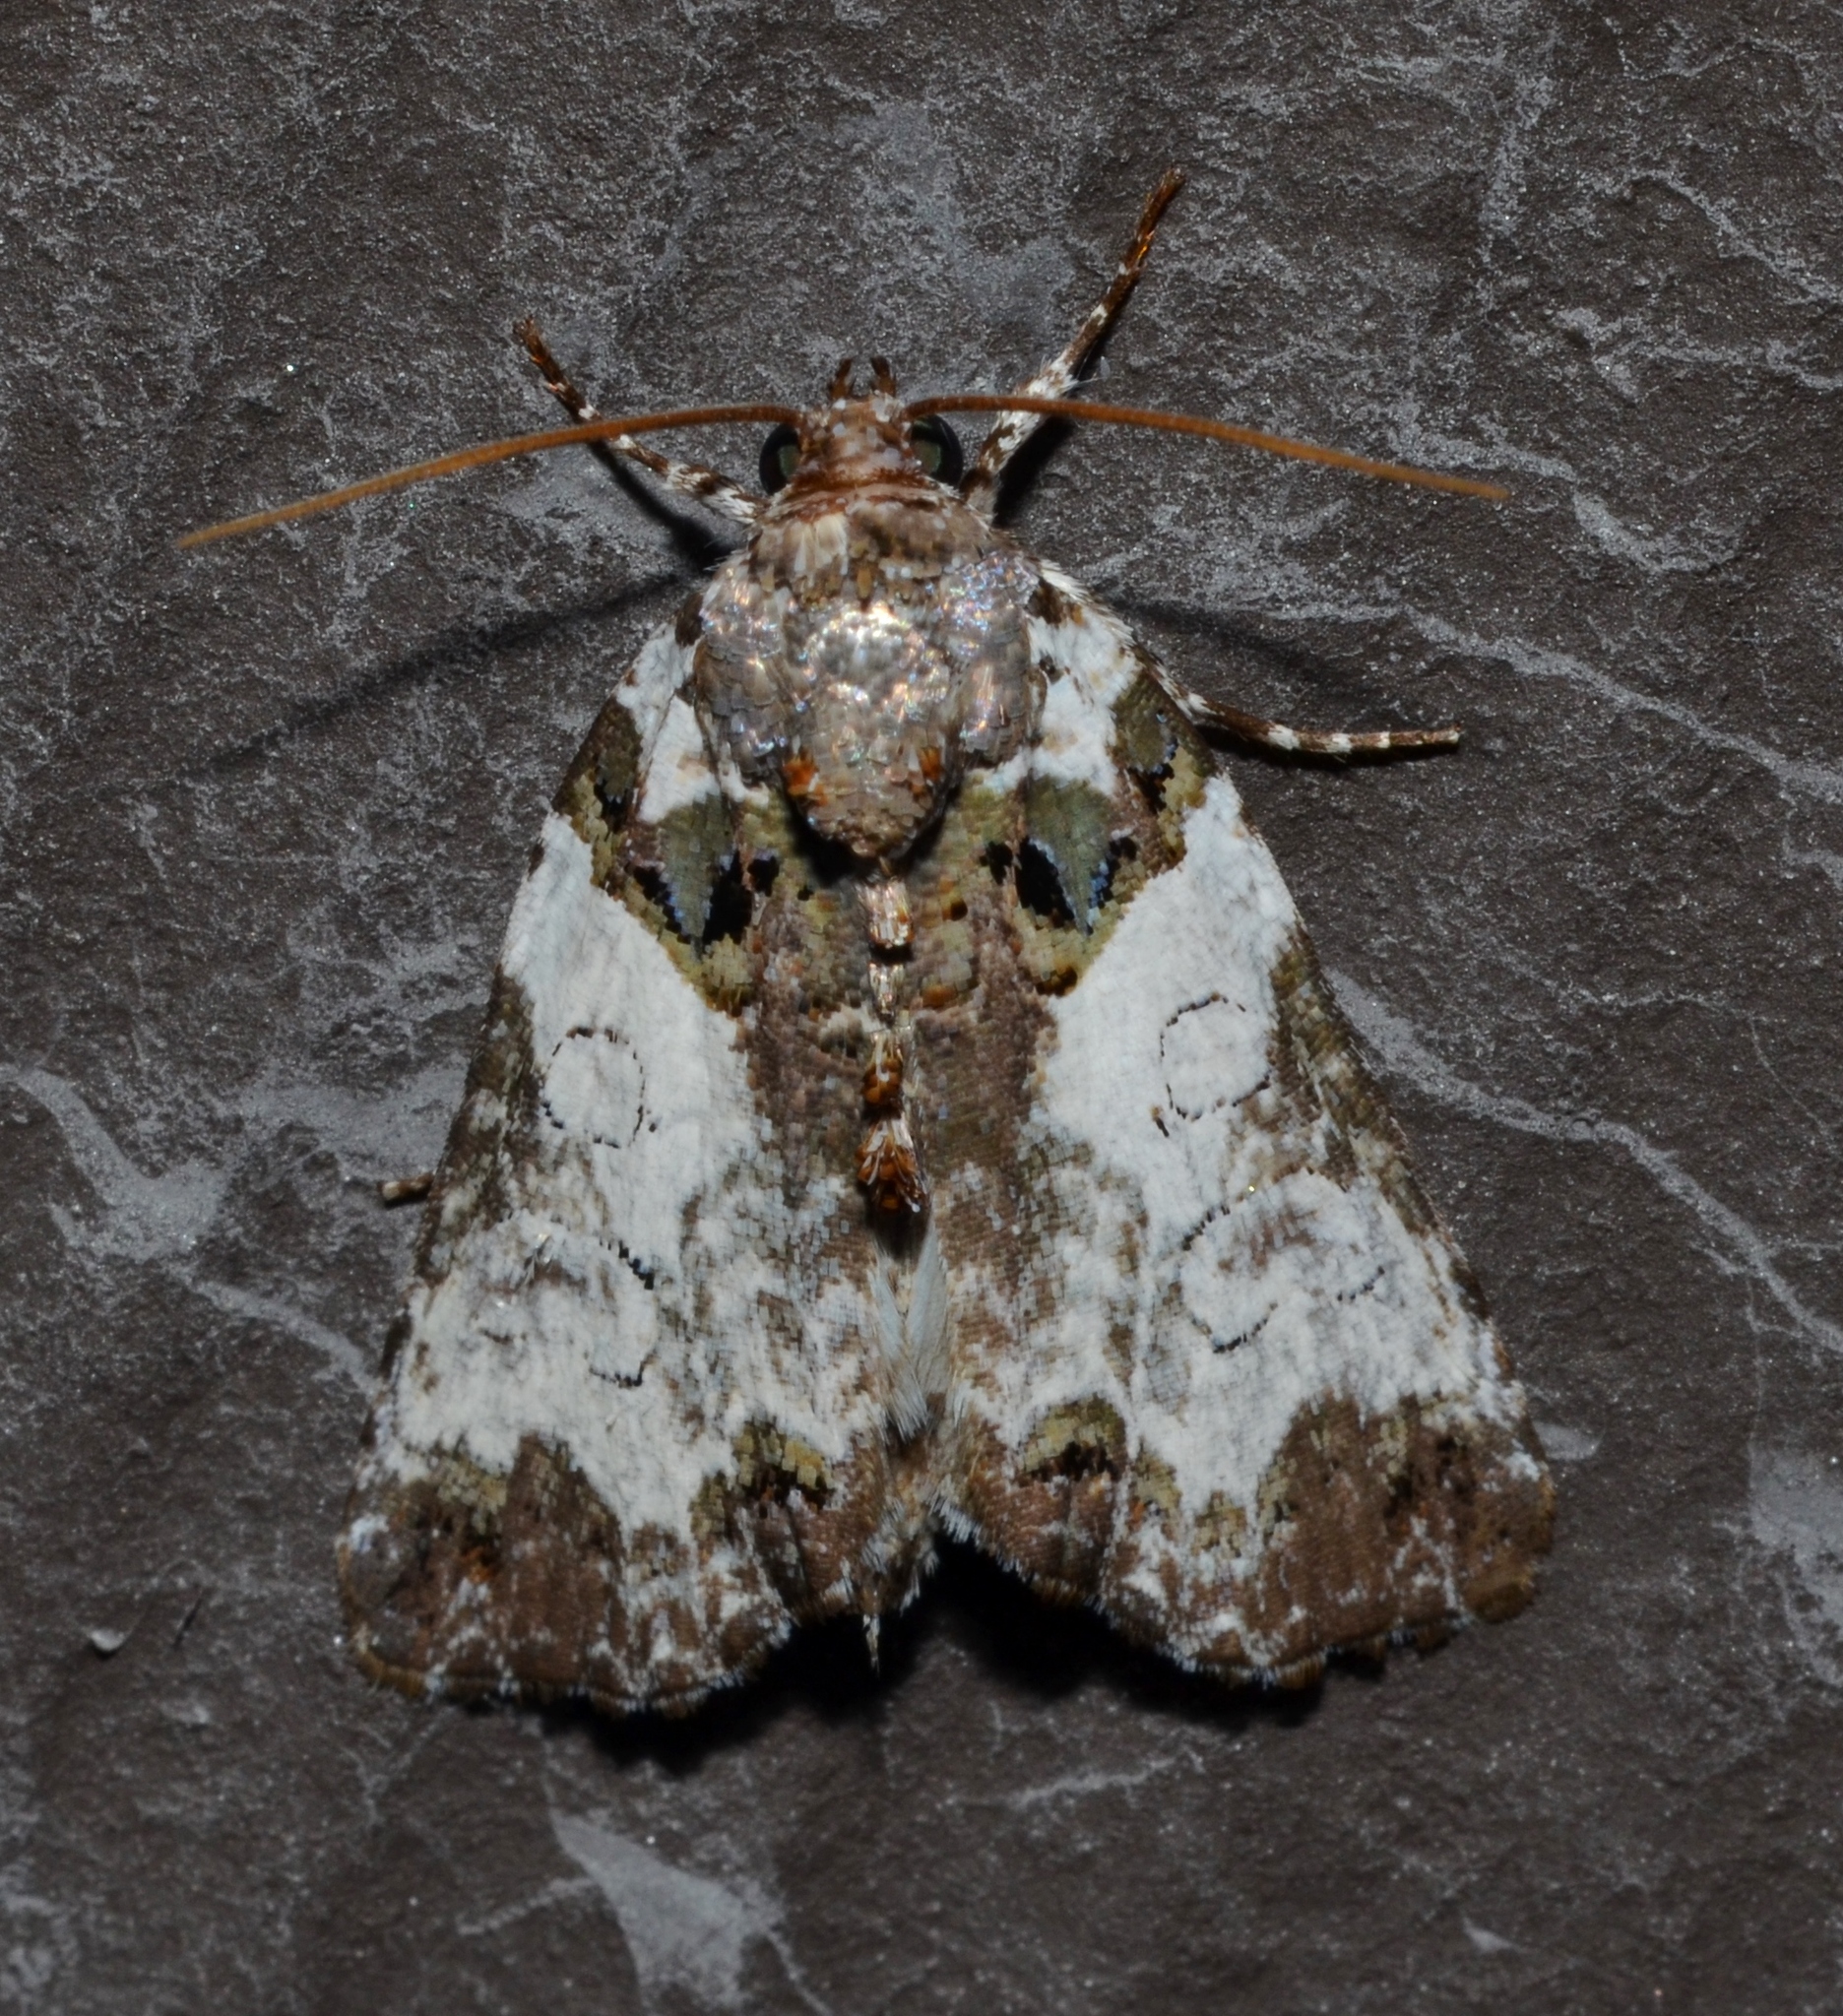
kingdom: Animalia
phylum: Arthropoda
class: Insecta
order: Lepidoptera
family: Noctuidae
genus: Cerma
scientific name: Cerma cerintha
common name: Tufted bird-dropping moth
